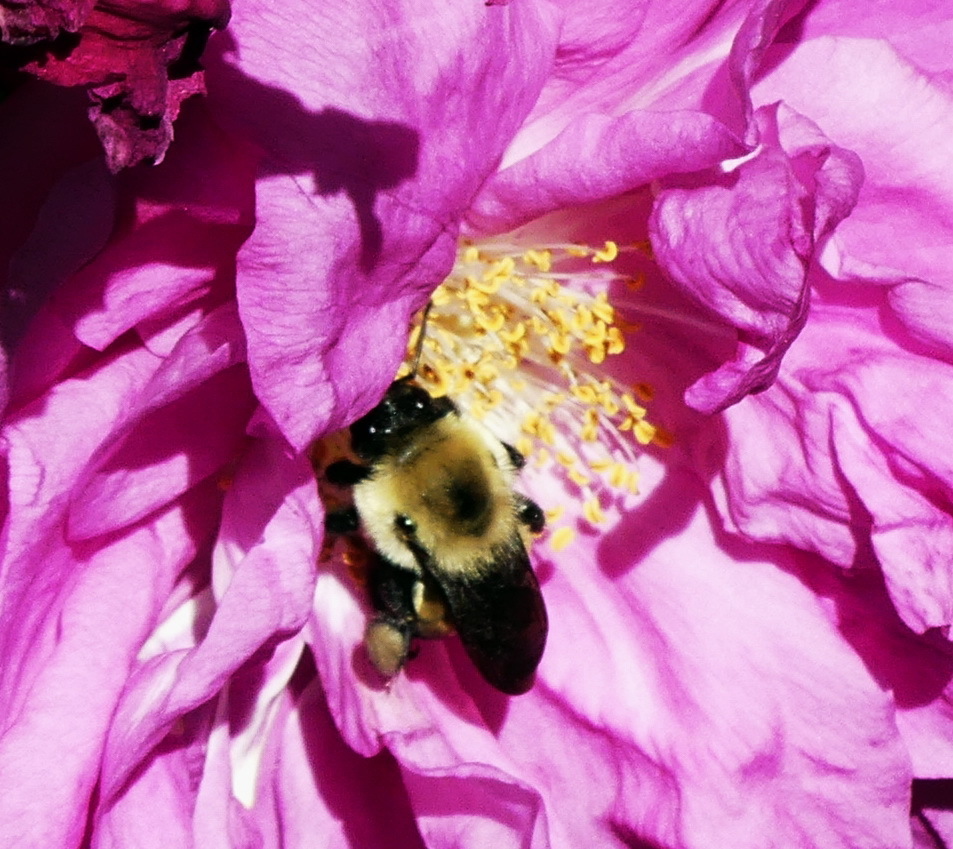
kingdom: Animalia
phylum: Arthropoda
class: Insecta
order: Hymenoptera
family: Apidae
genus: Bombus
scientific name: Bombus griseocollis
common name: Brown-belted bumble bee
